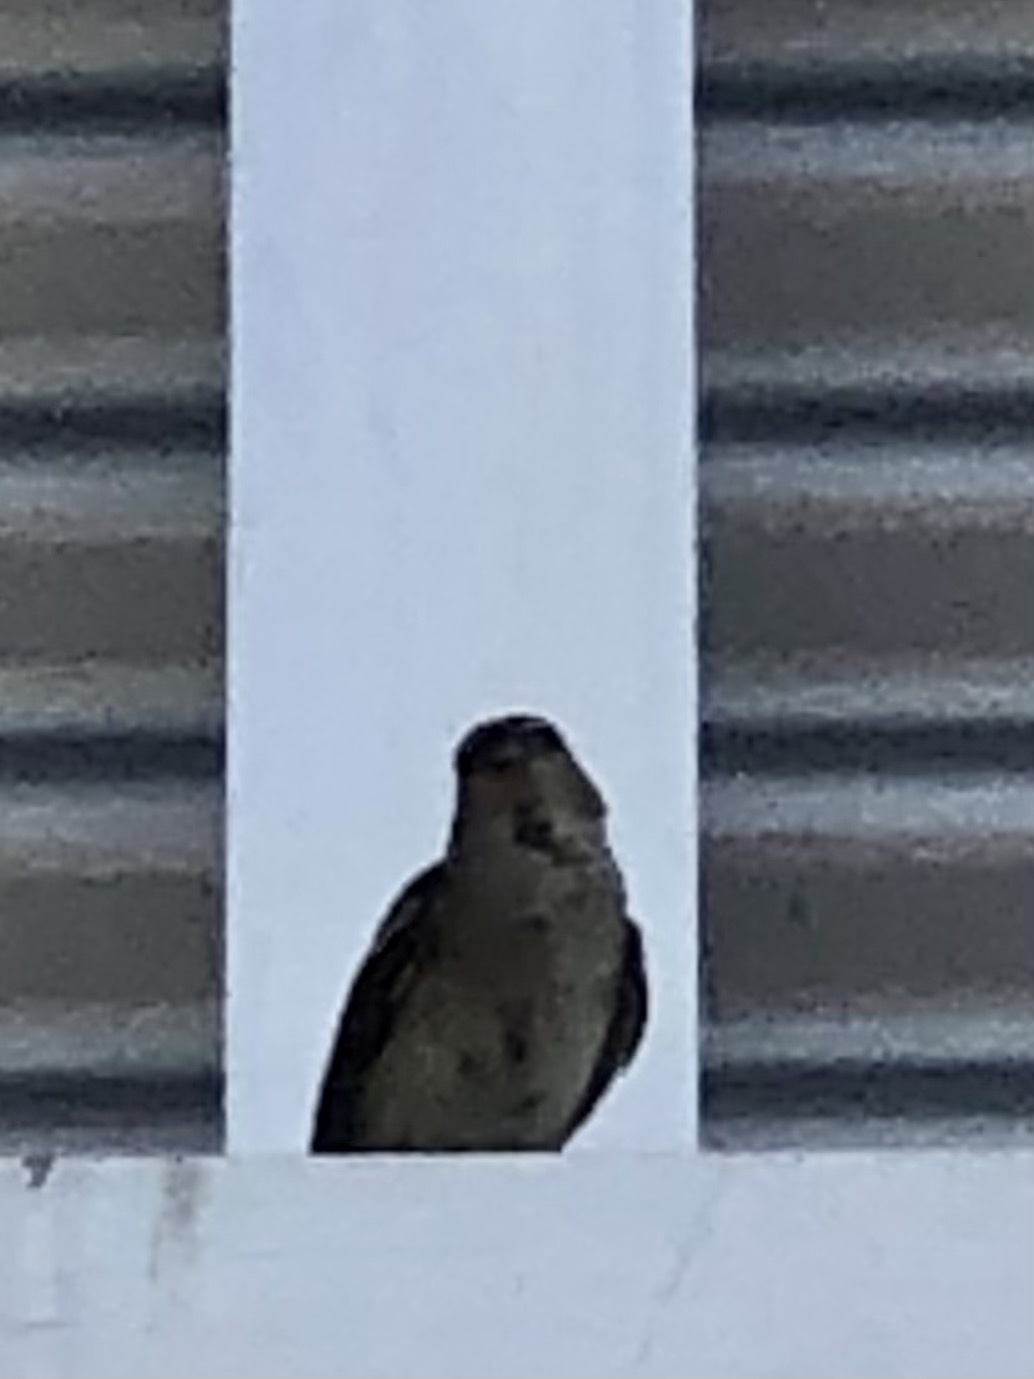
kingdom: Animalia
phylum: Chordata
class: Aves
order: Passeriformes
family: Passeridae
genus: Passer
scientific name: Passer domesticus
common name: House sparrow
